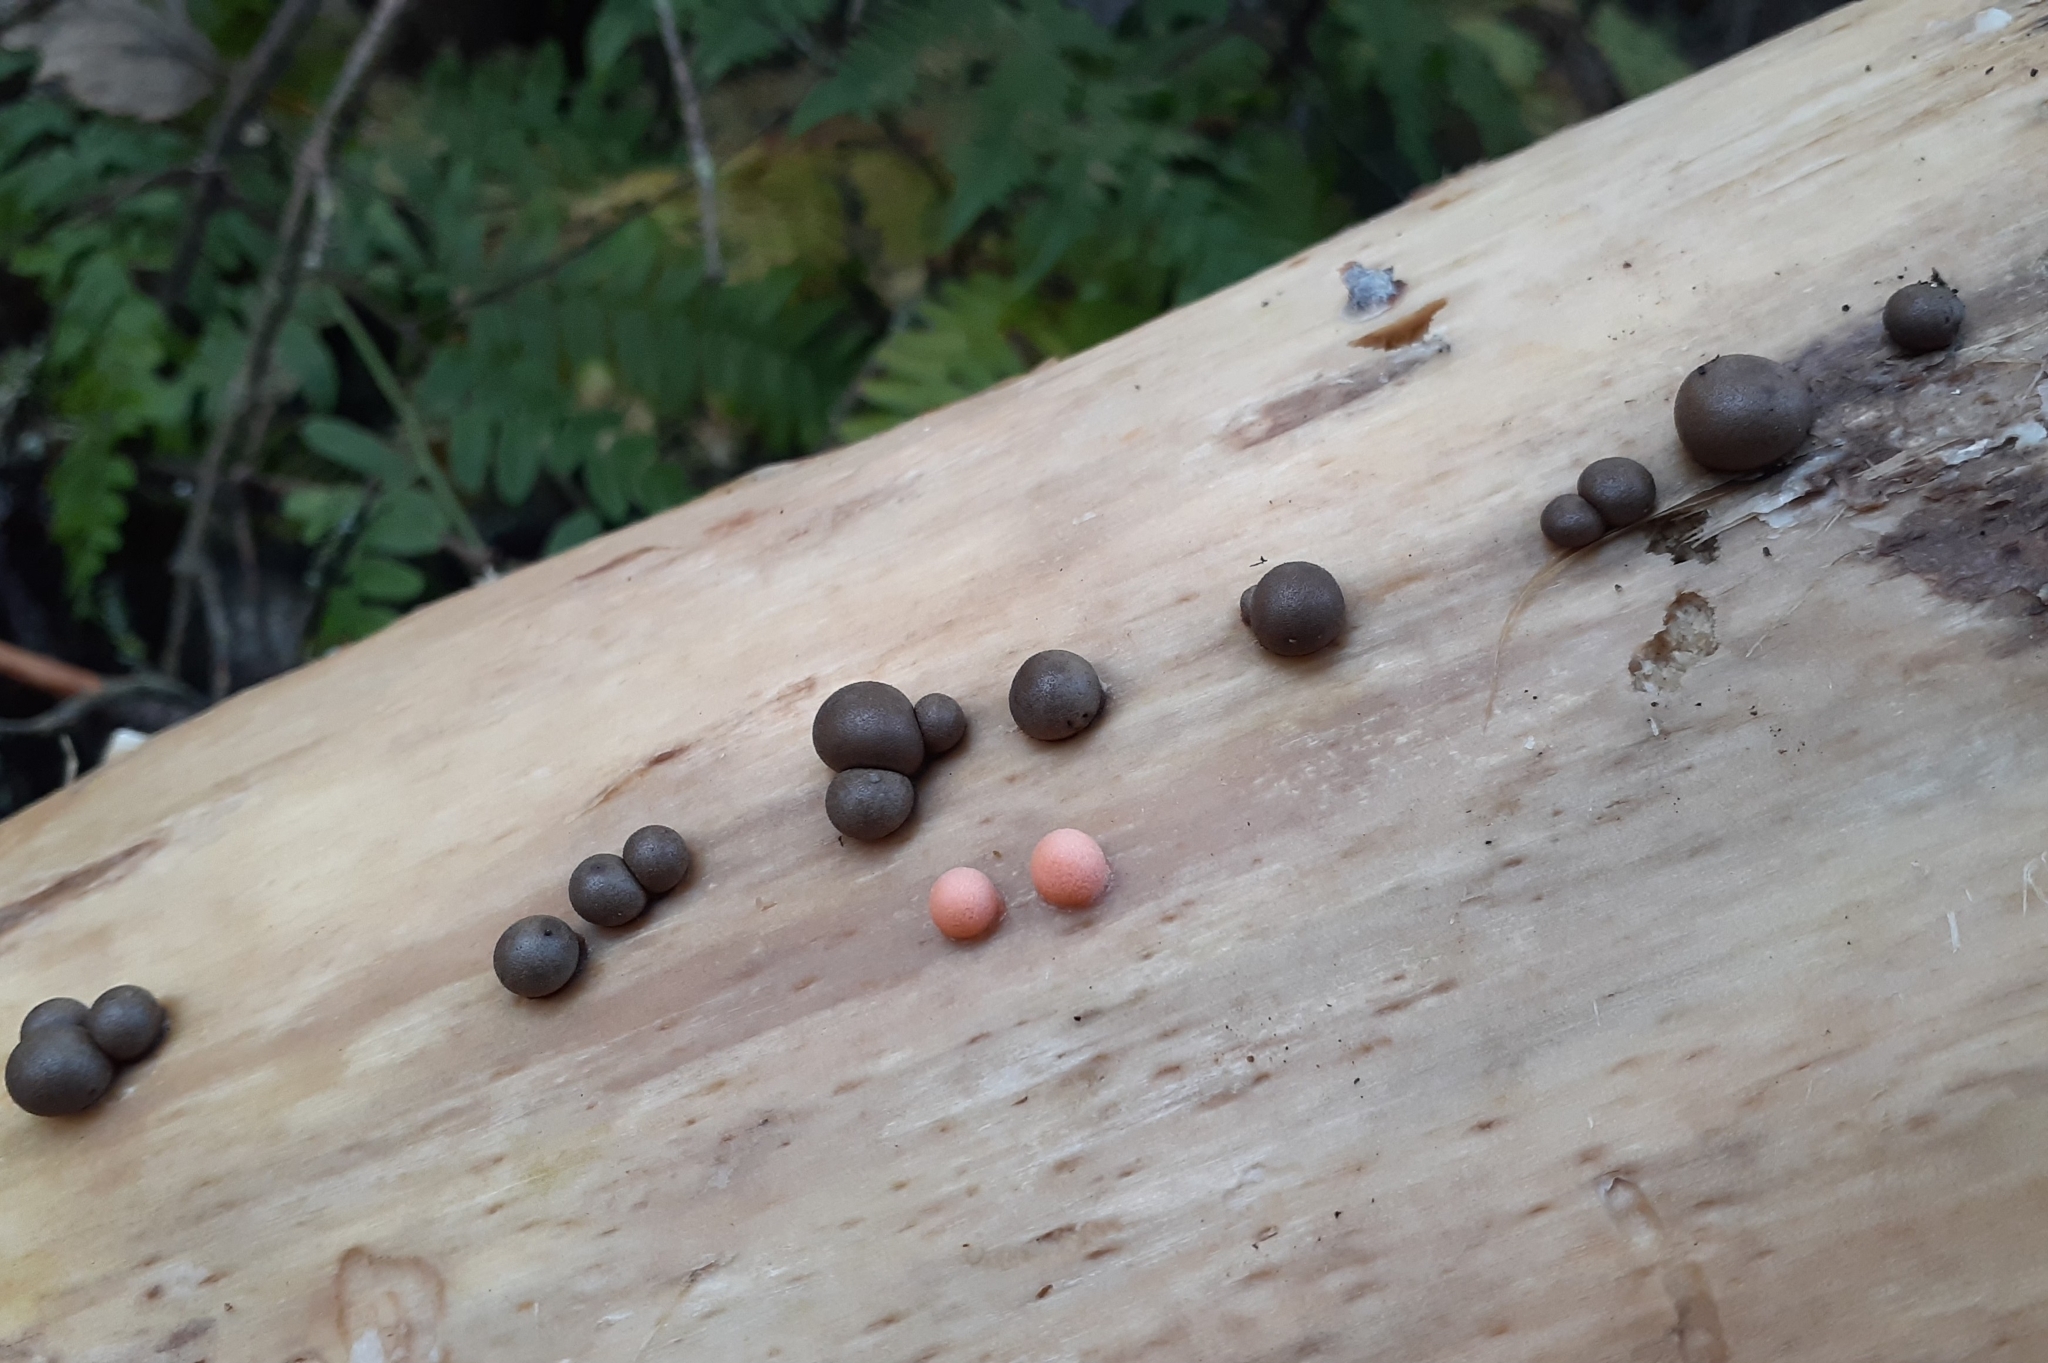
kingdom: Protozoa
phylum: Mycetozoa
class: Myxomycetes
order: Cribrariales
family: Tubiferaceae
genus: Lycogala
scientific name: Lycogala epidendrum
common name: Wolf's milk
